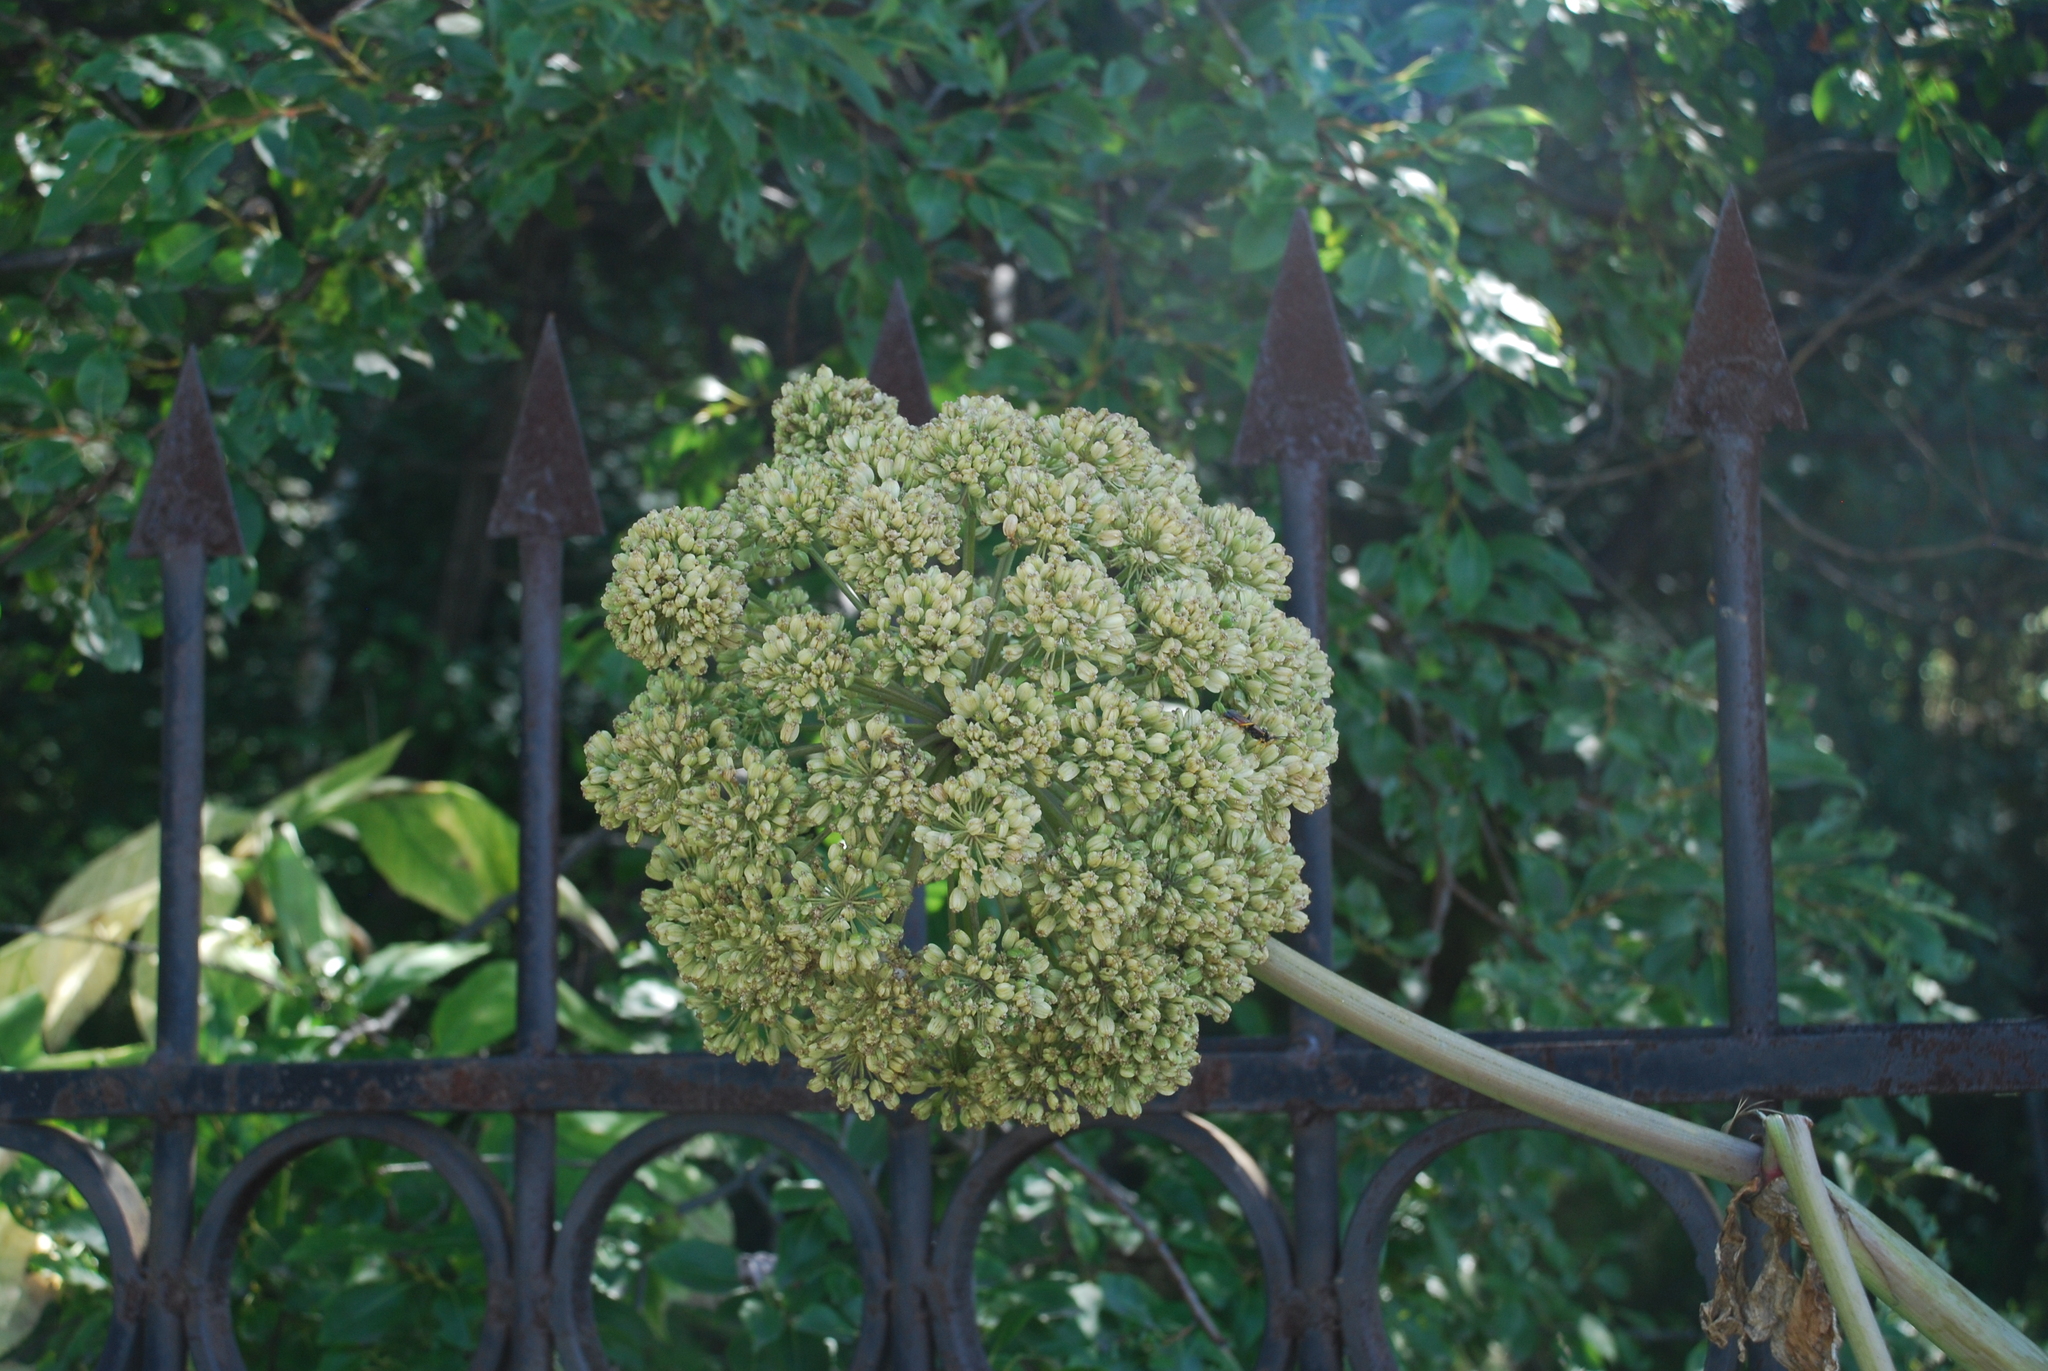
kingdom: Plantae
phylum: Tracheophyta
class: Magnoliopsida
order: Apiales
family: Apiaceae
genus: Angelica
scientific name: Angelica decurrens
